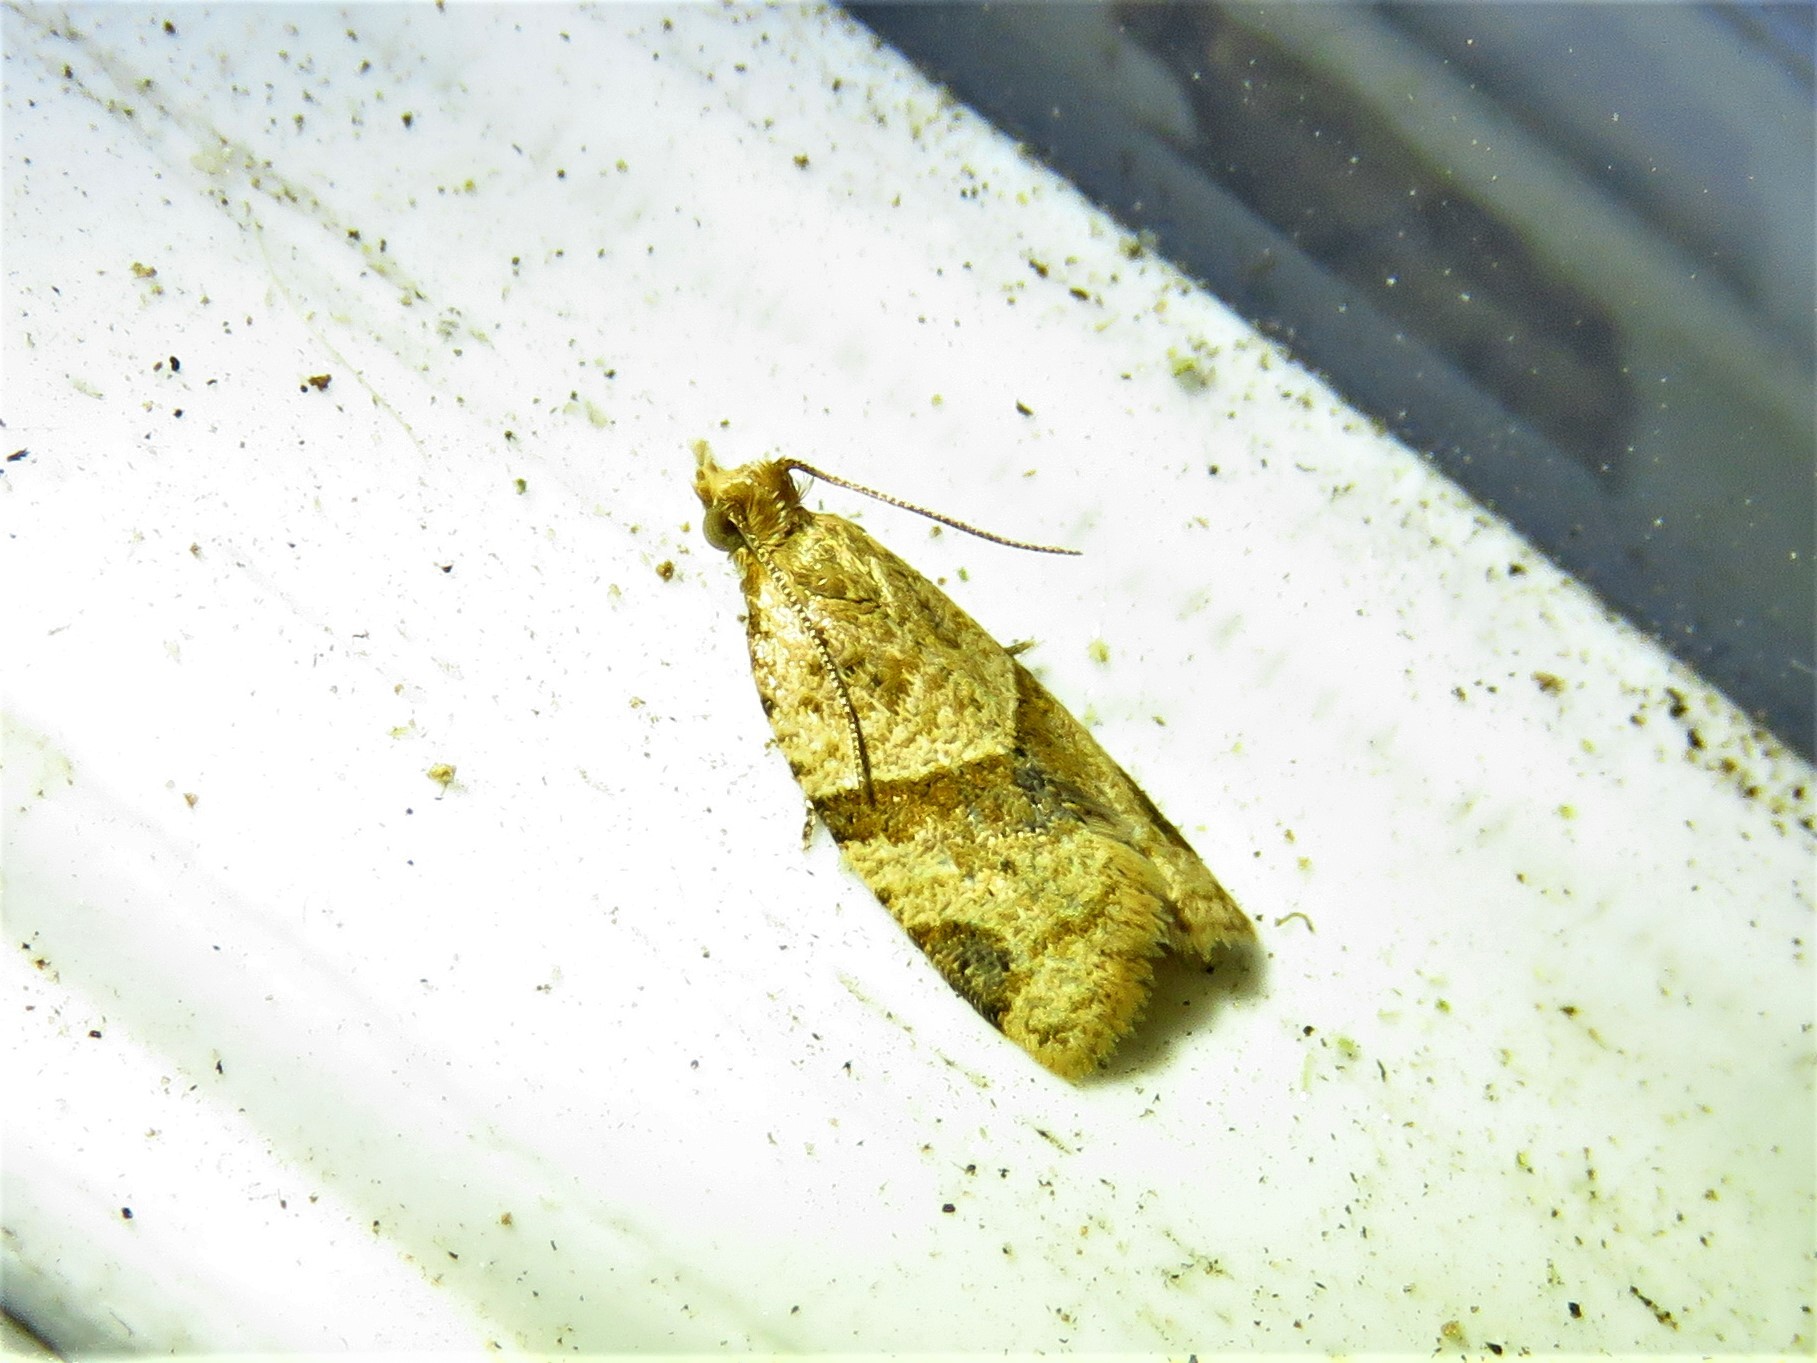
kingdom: Animalia
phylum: Arthropoda
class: Insecta
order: Lepidoptera
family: Tortricidae
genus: Clepsis
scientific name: Clepsis peritana
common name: Garden tortrix
